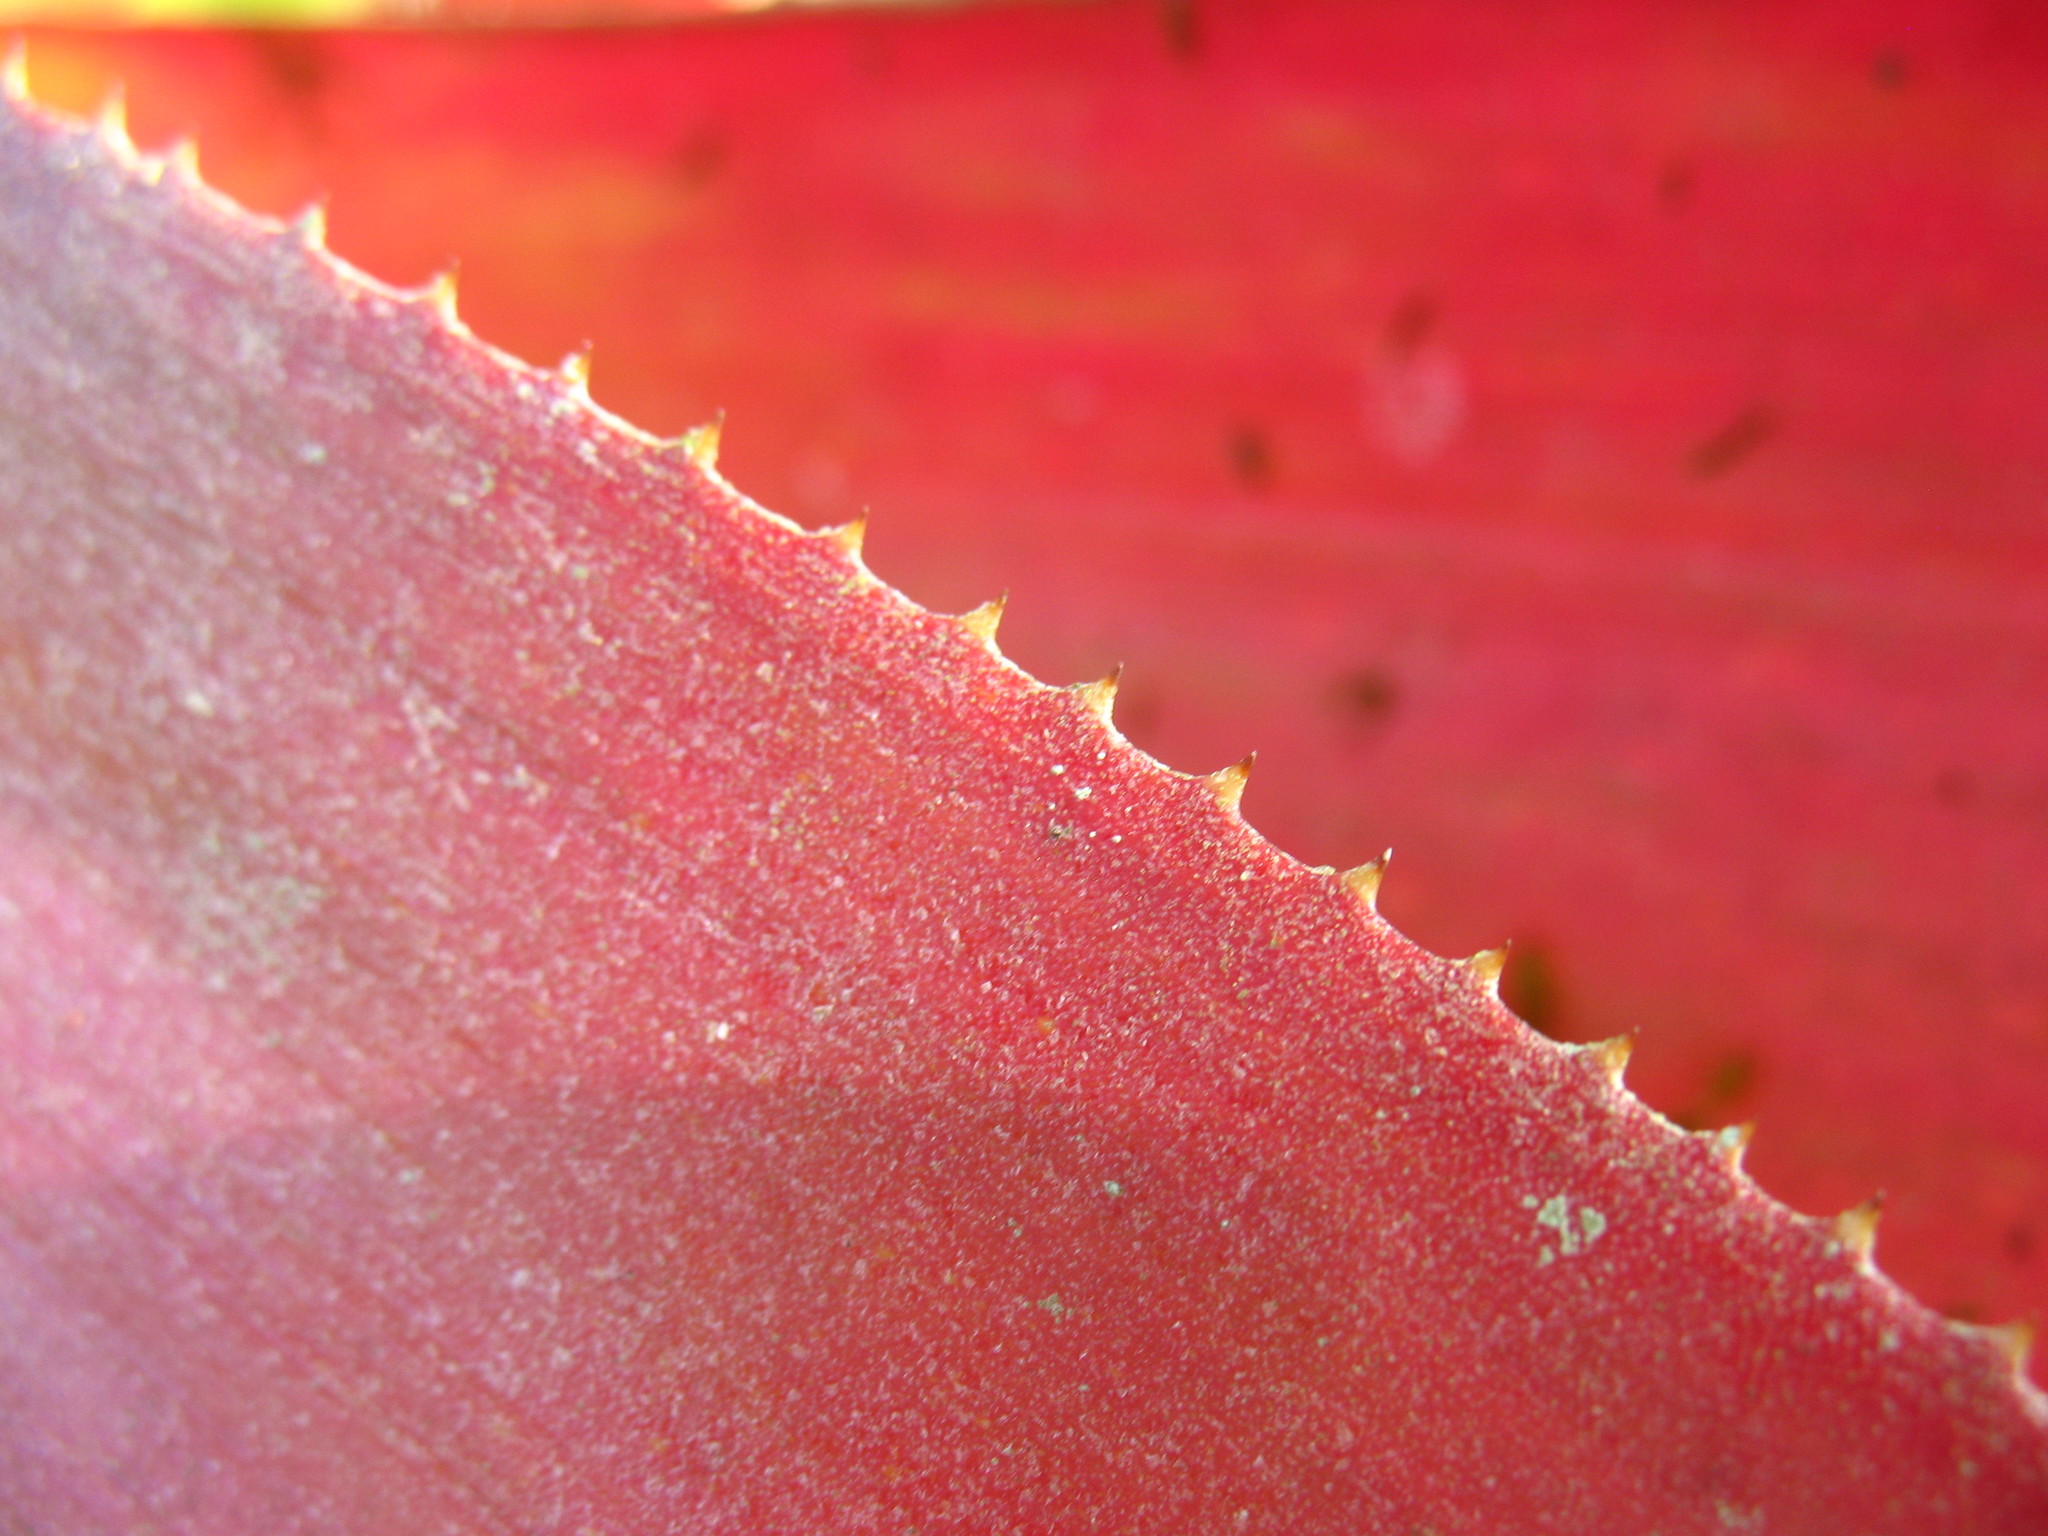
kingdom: Plantae
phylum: Tracheophyta
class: Liliopsida
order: Poales
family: Bromeliaceae
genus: Androlepis
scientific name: Androlepis skinneri
